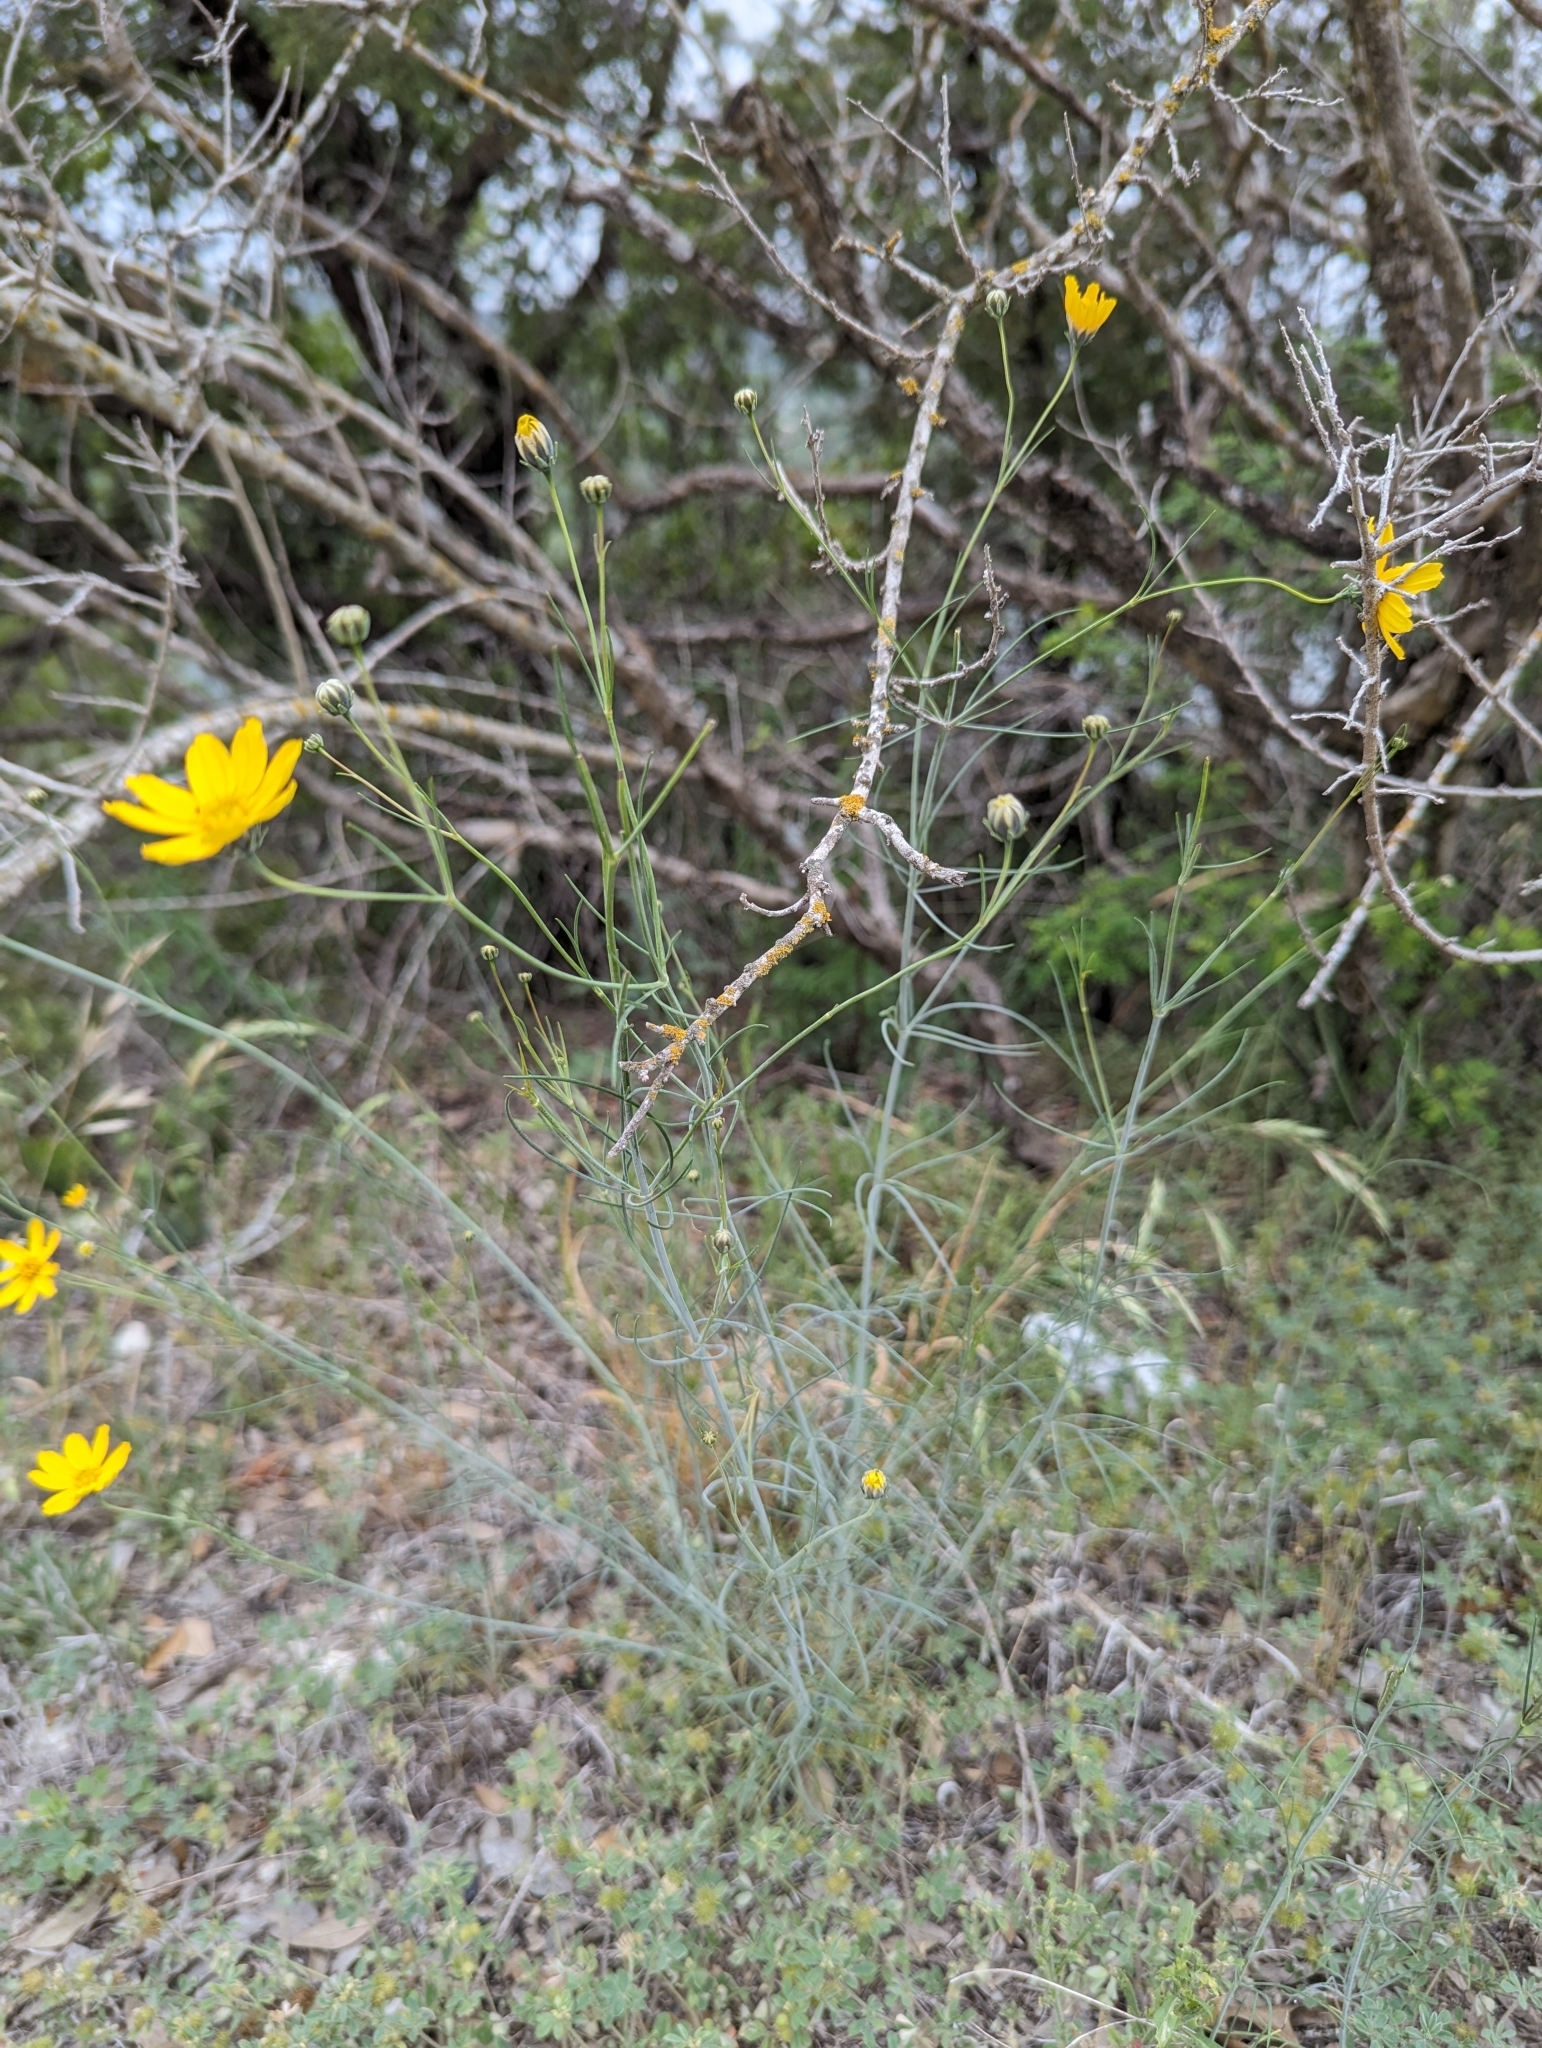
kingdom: Plantae
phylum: Tracheophyta
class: Magnoliopsida
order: Asterales
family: Asteraceae
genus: Thelesperma
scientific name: Thelesperma simplicifolium
